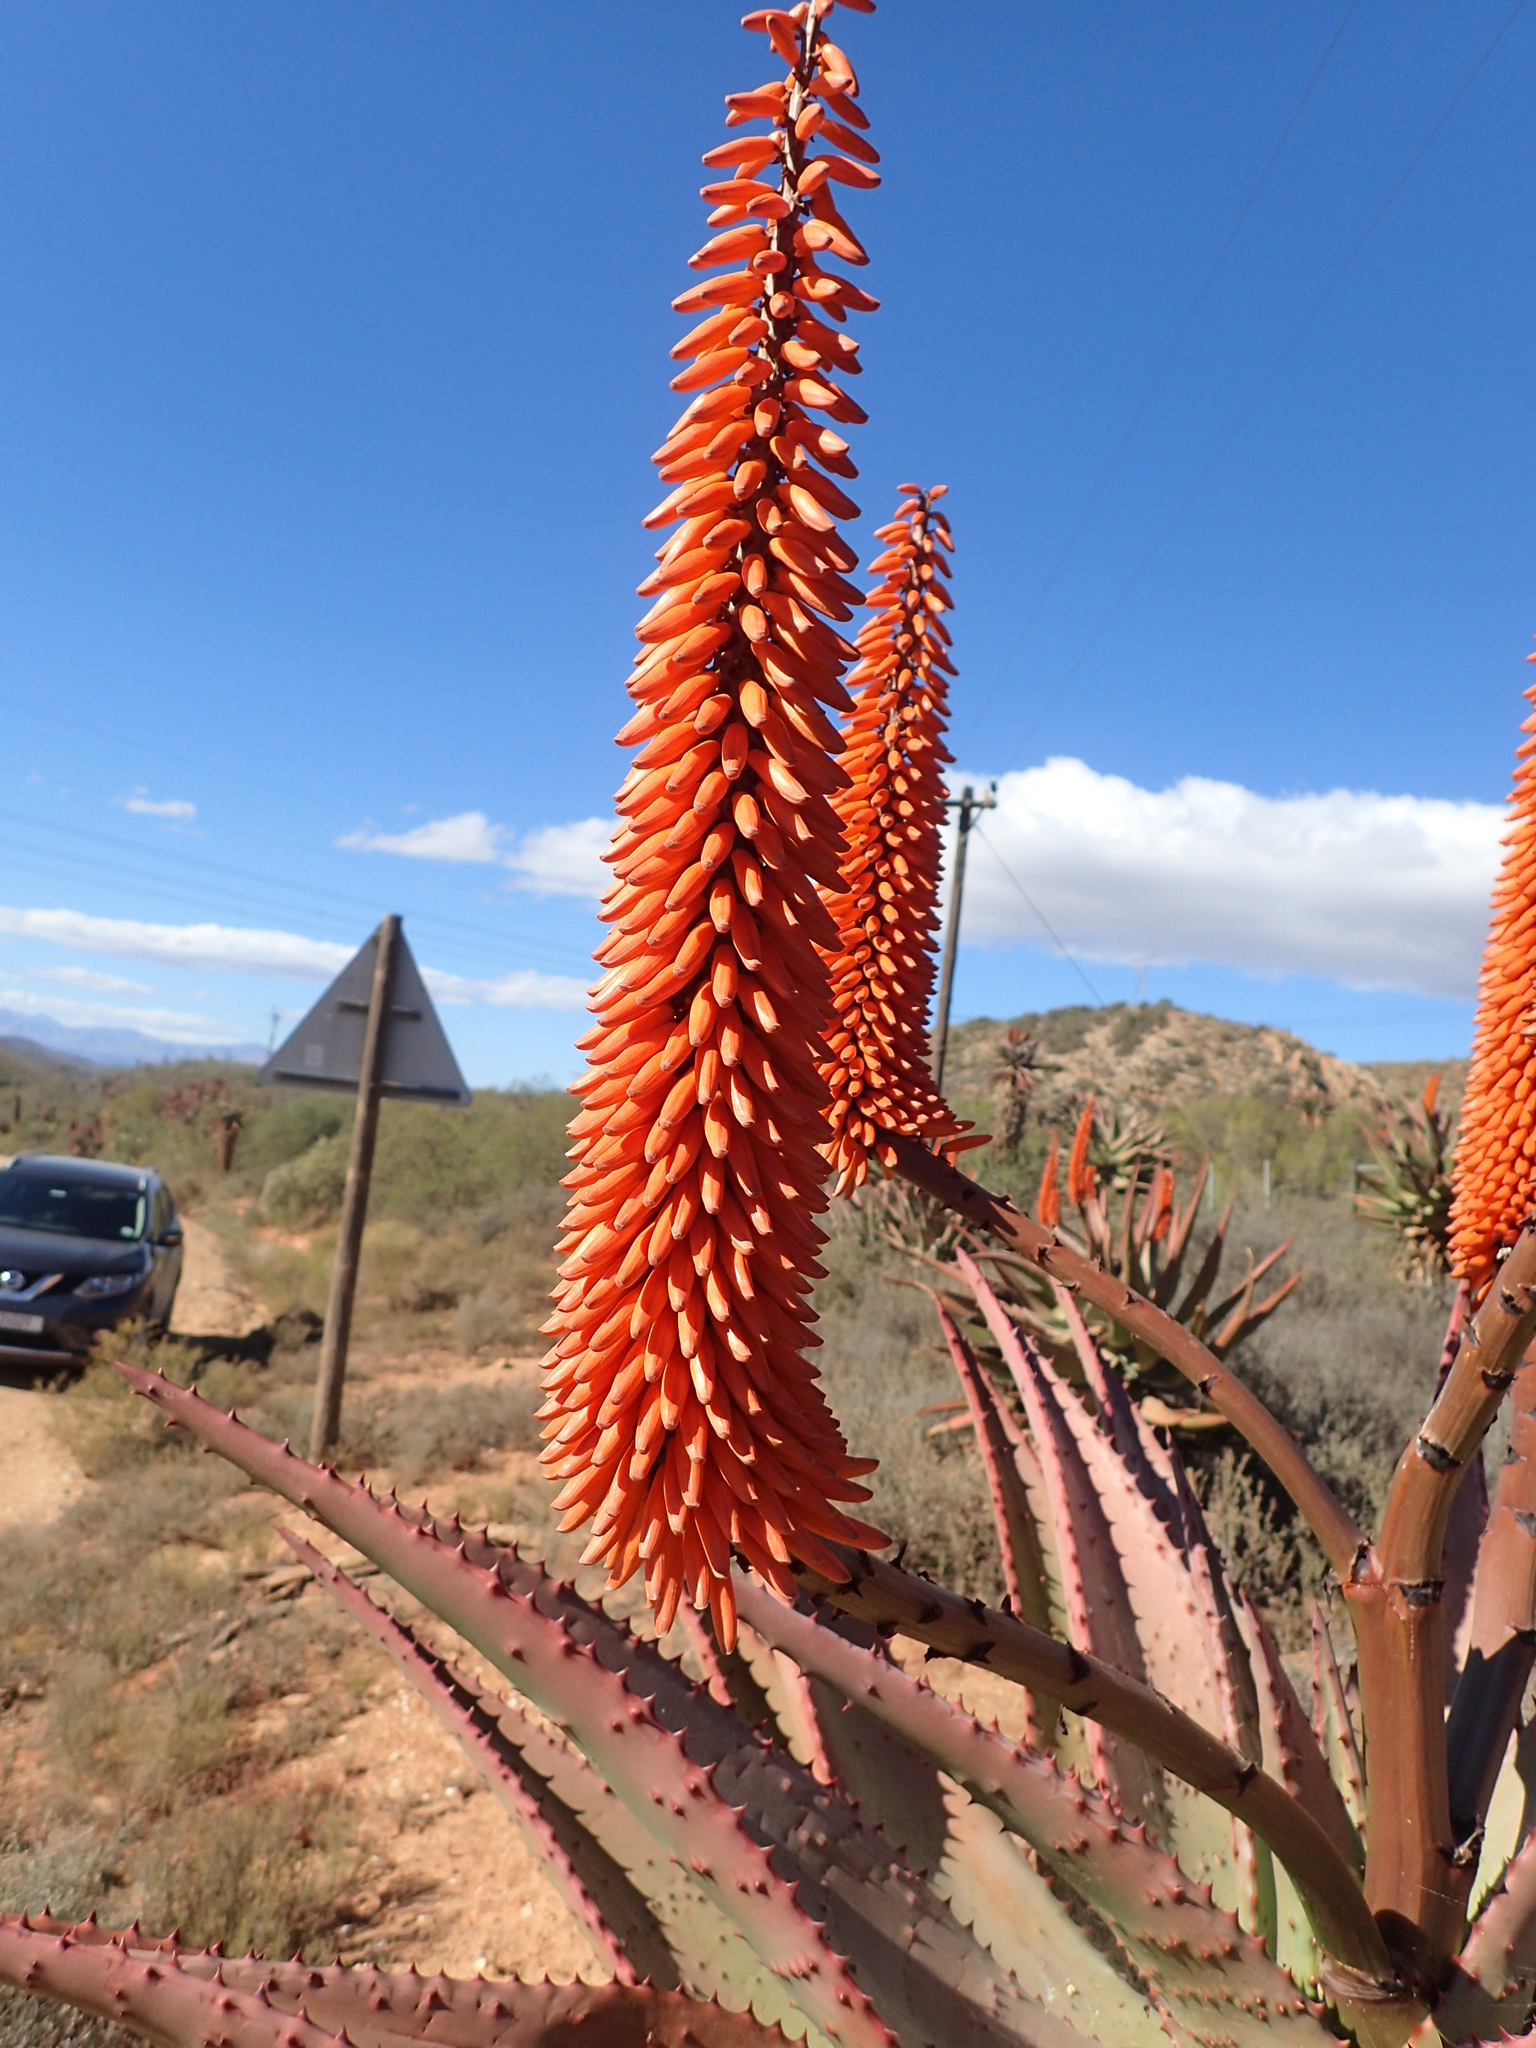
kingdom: Plantae
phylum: Tracheophyta
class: Liliopsida
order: Asparagales
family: Asphodelaceae
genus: Aloe
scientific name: Aloe ferox
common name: Bitter aloe
